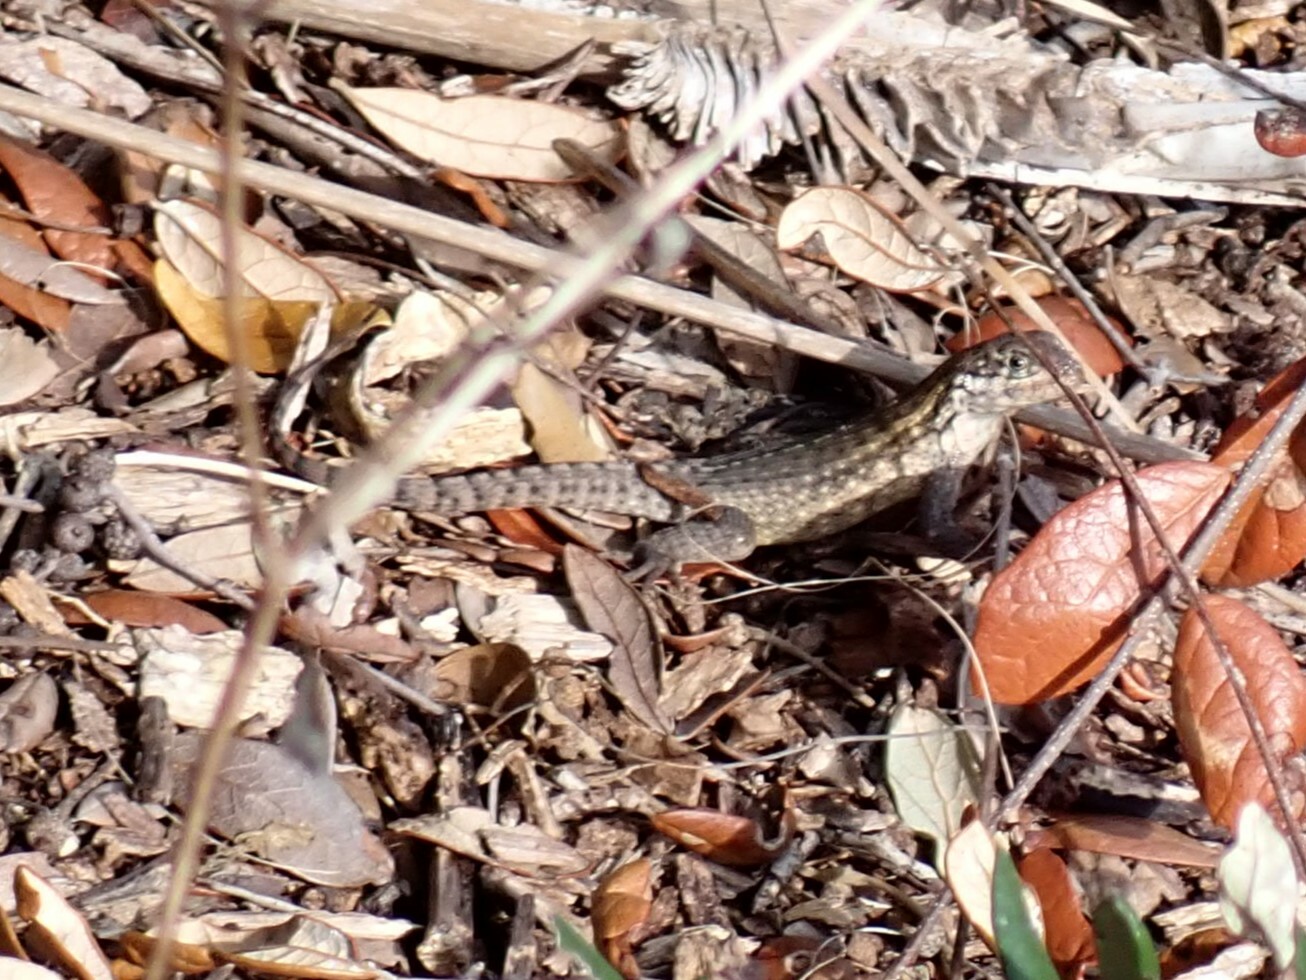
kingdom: Animalia
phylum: Chordata
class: Squamata
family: Leiocephalidae
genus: Leiocephalus
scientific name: Leiocephalus carinatus
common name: Northern curly-tailed lizard
